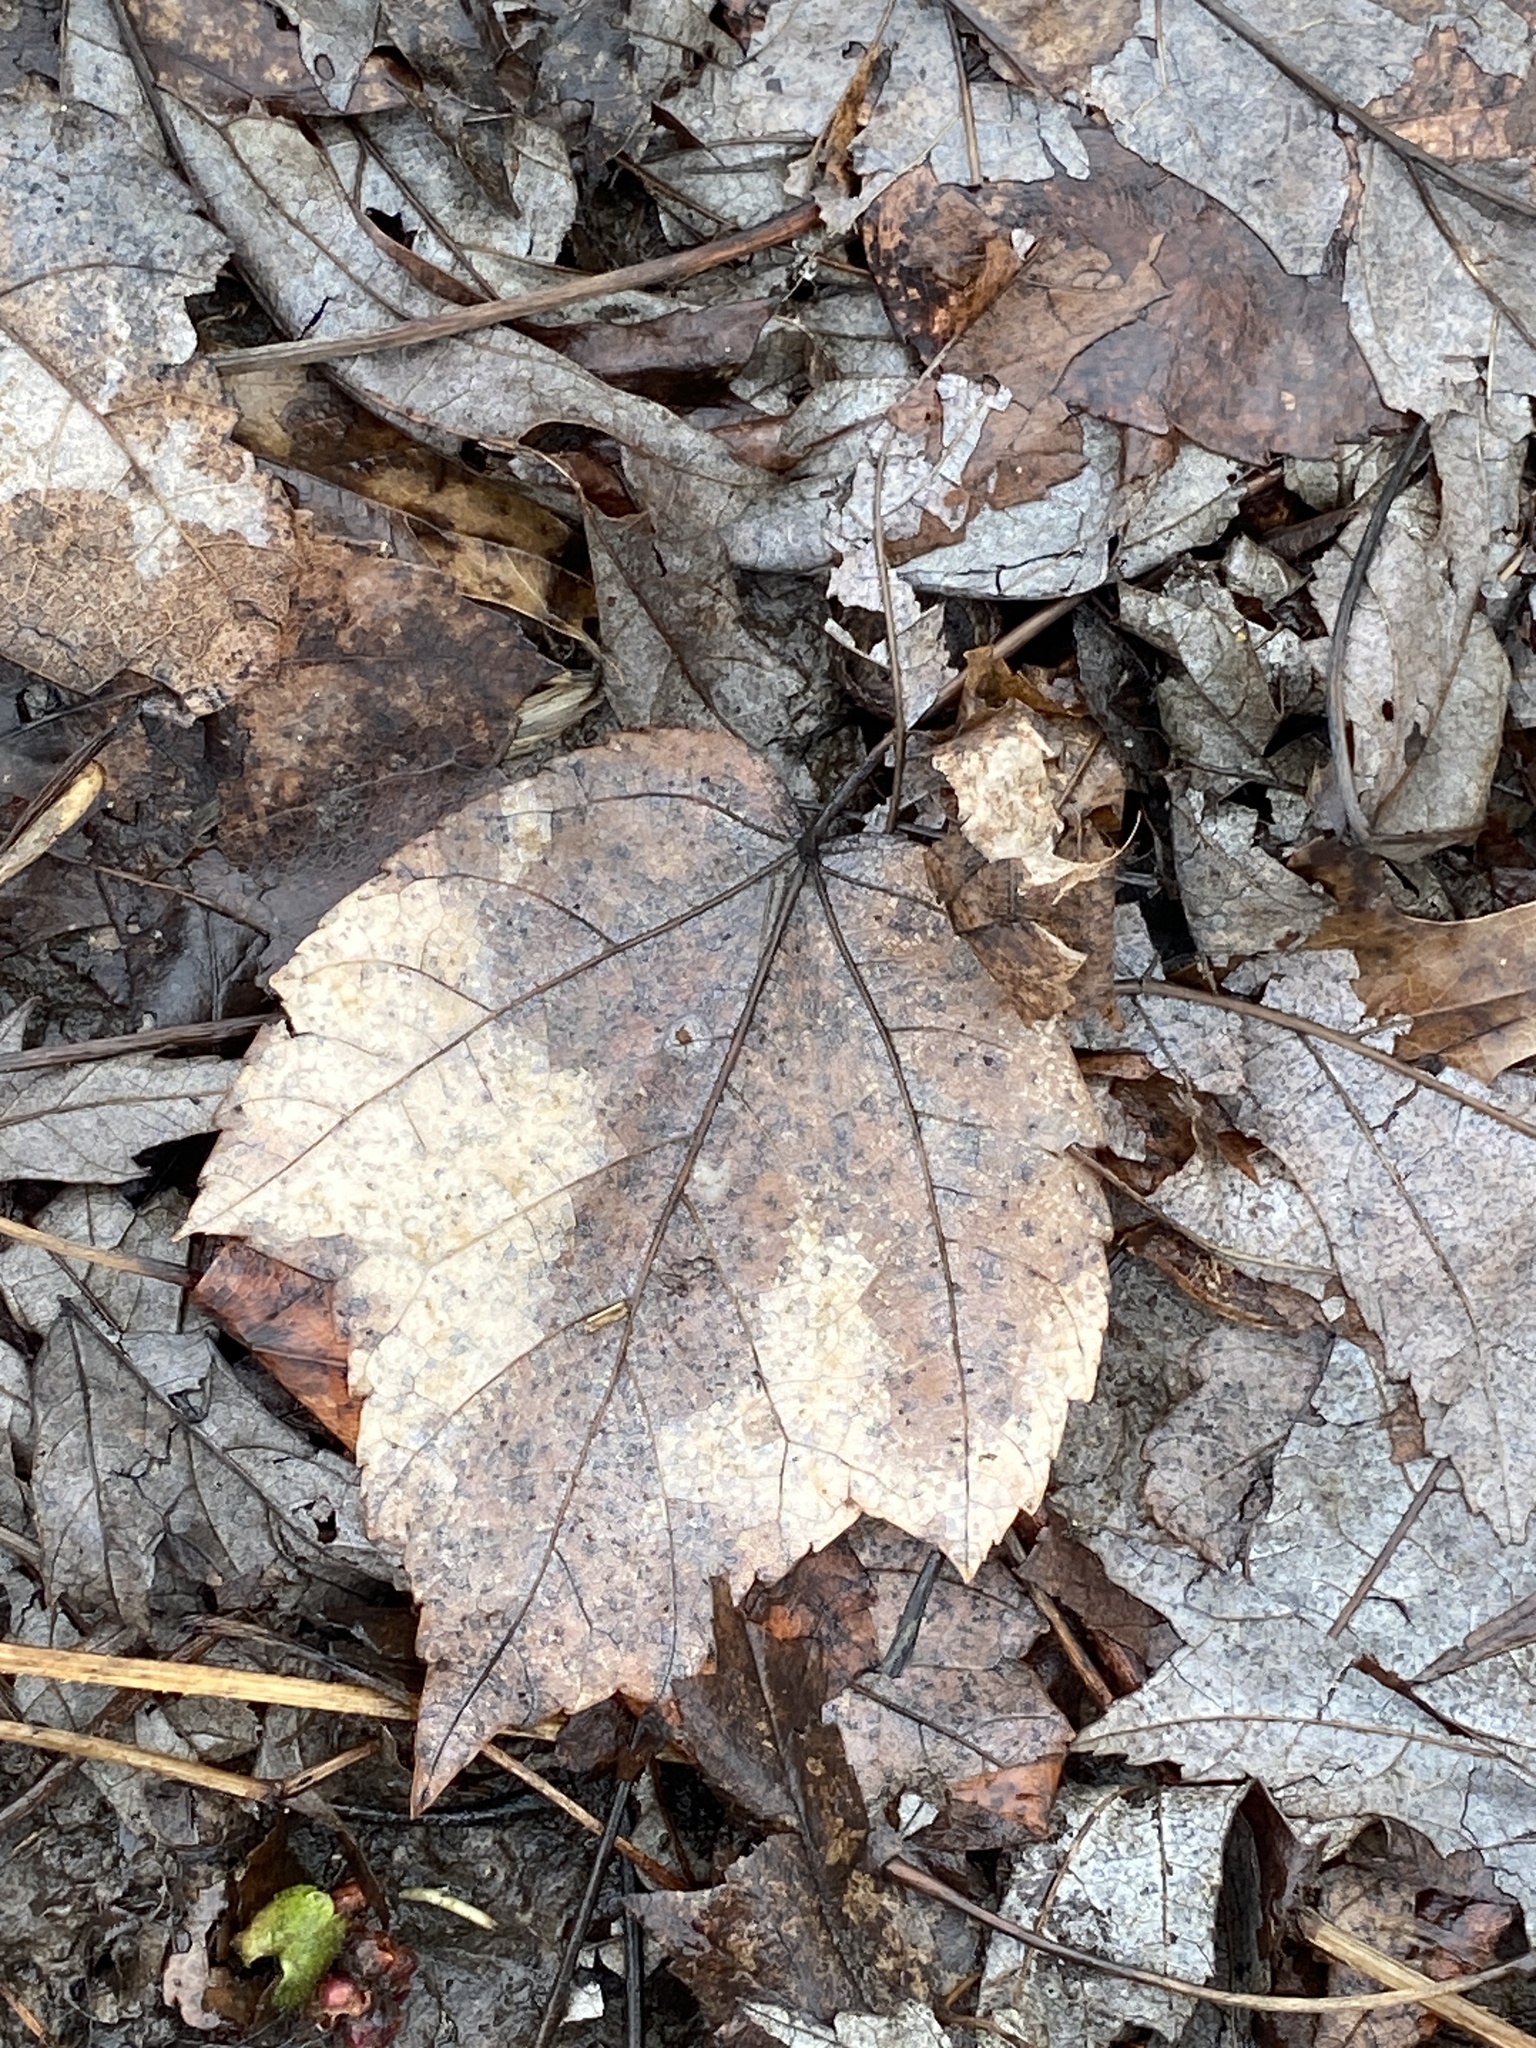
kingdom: Plantae
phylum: Tracheophyta
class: Magnoliopsida
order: Sapindales
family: Sapindaceae
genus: Acer
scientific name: Acer rubrum
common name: Red maple
